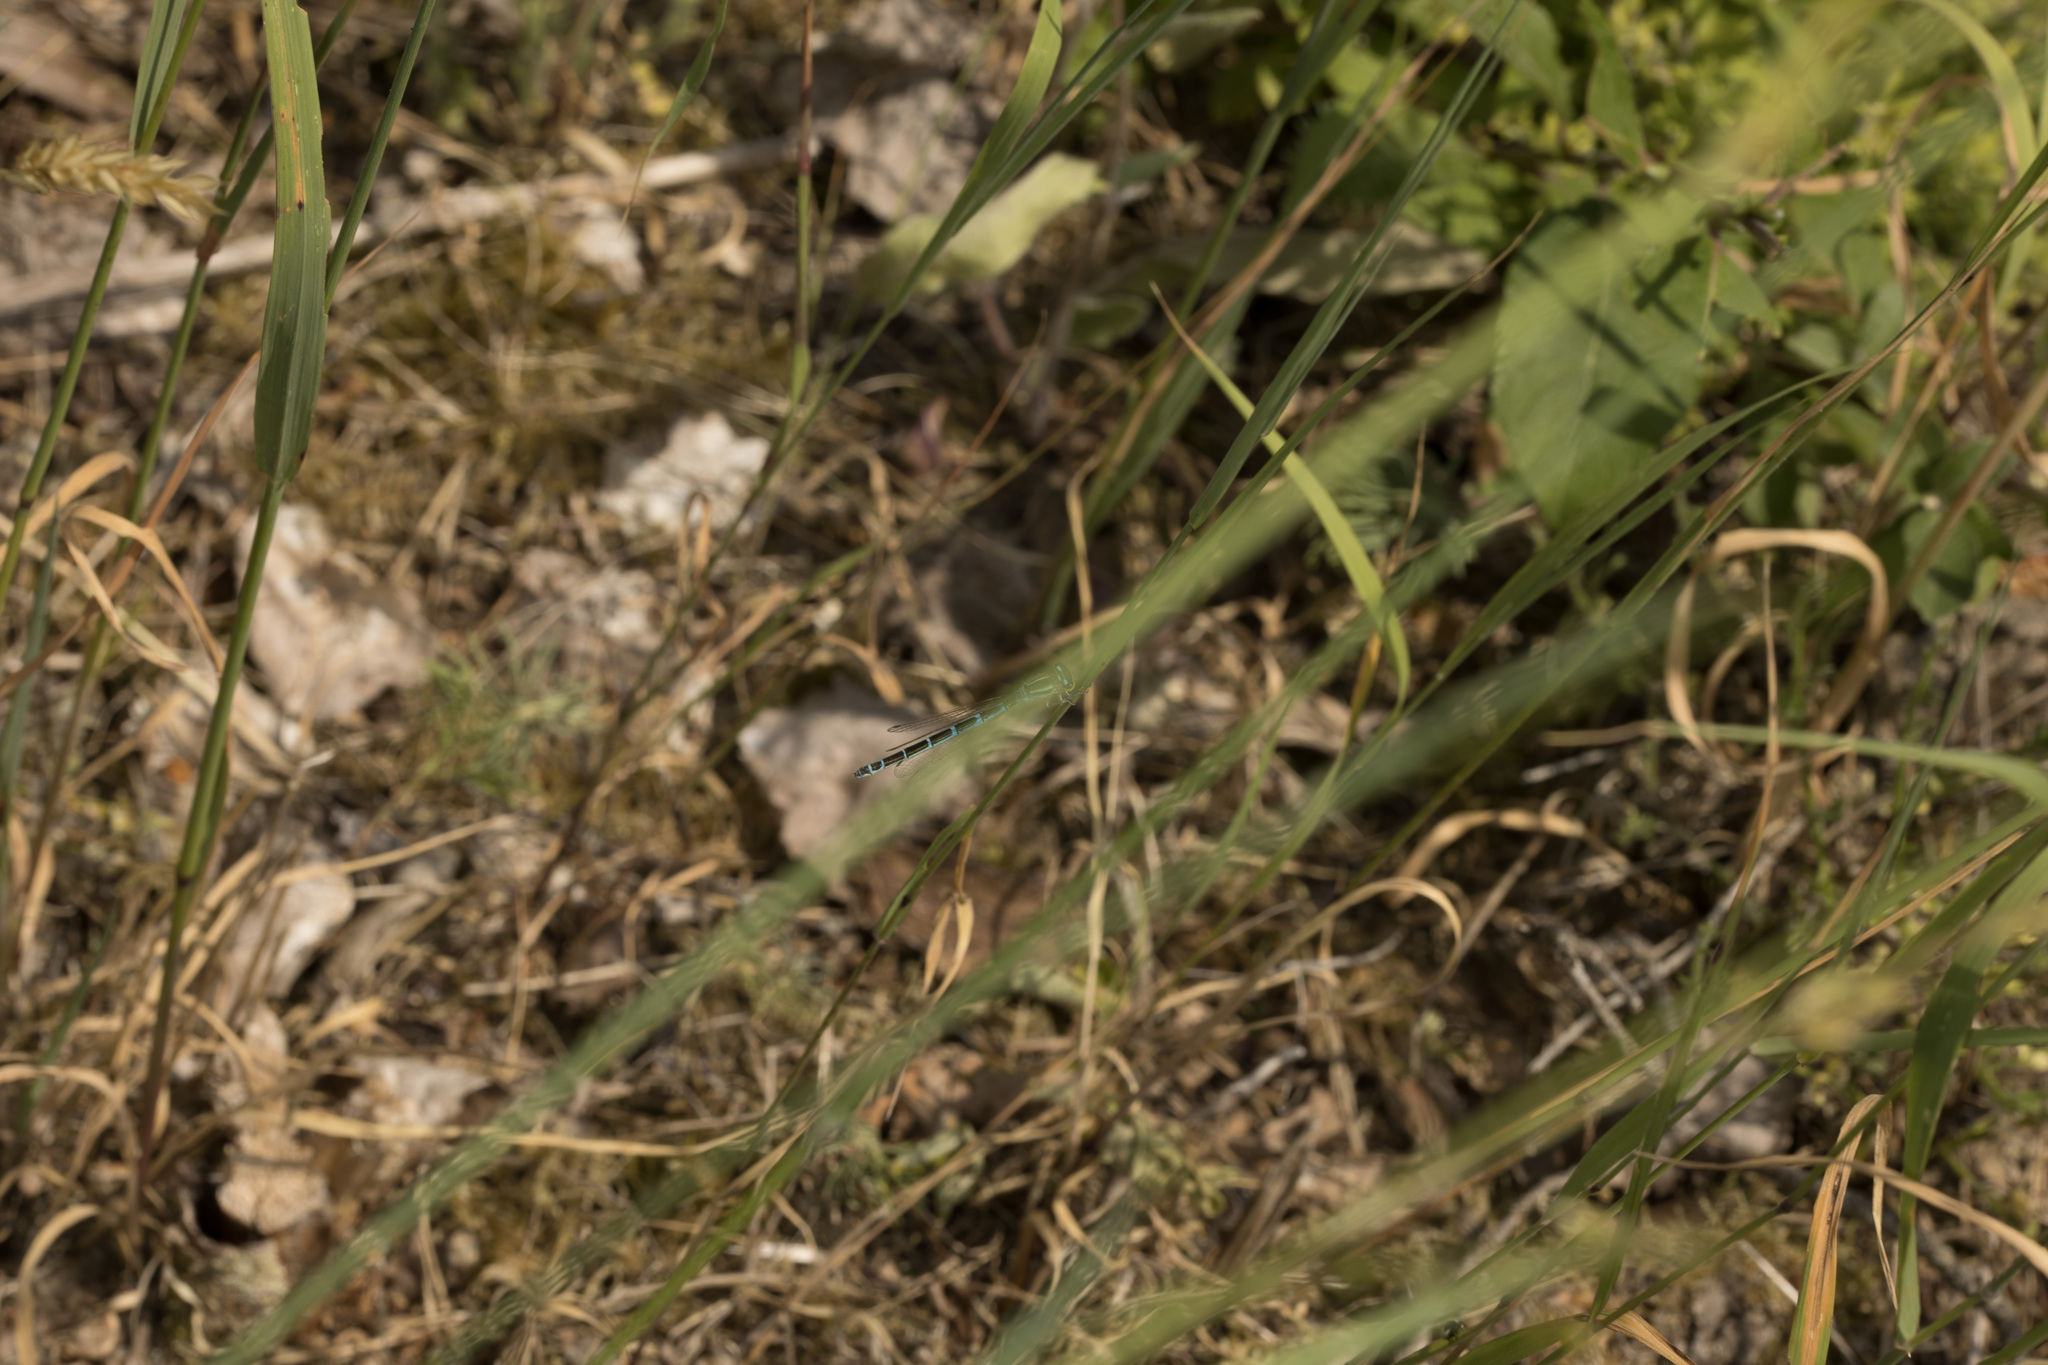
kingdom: Animalia
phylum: Arthropoda
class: Insecta
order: Odonata
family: Coenagrionidae
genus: Coenagrion
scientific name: Coenagrion scitulum
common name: Dainty bluet
